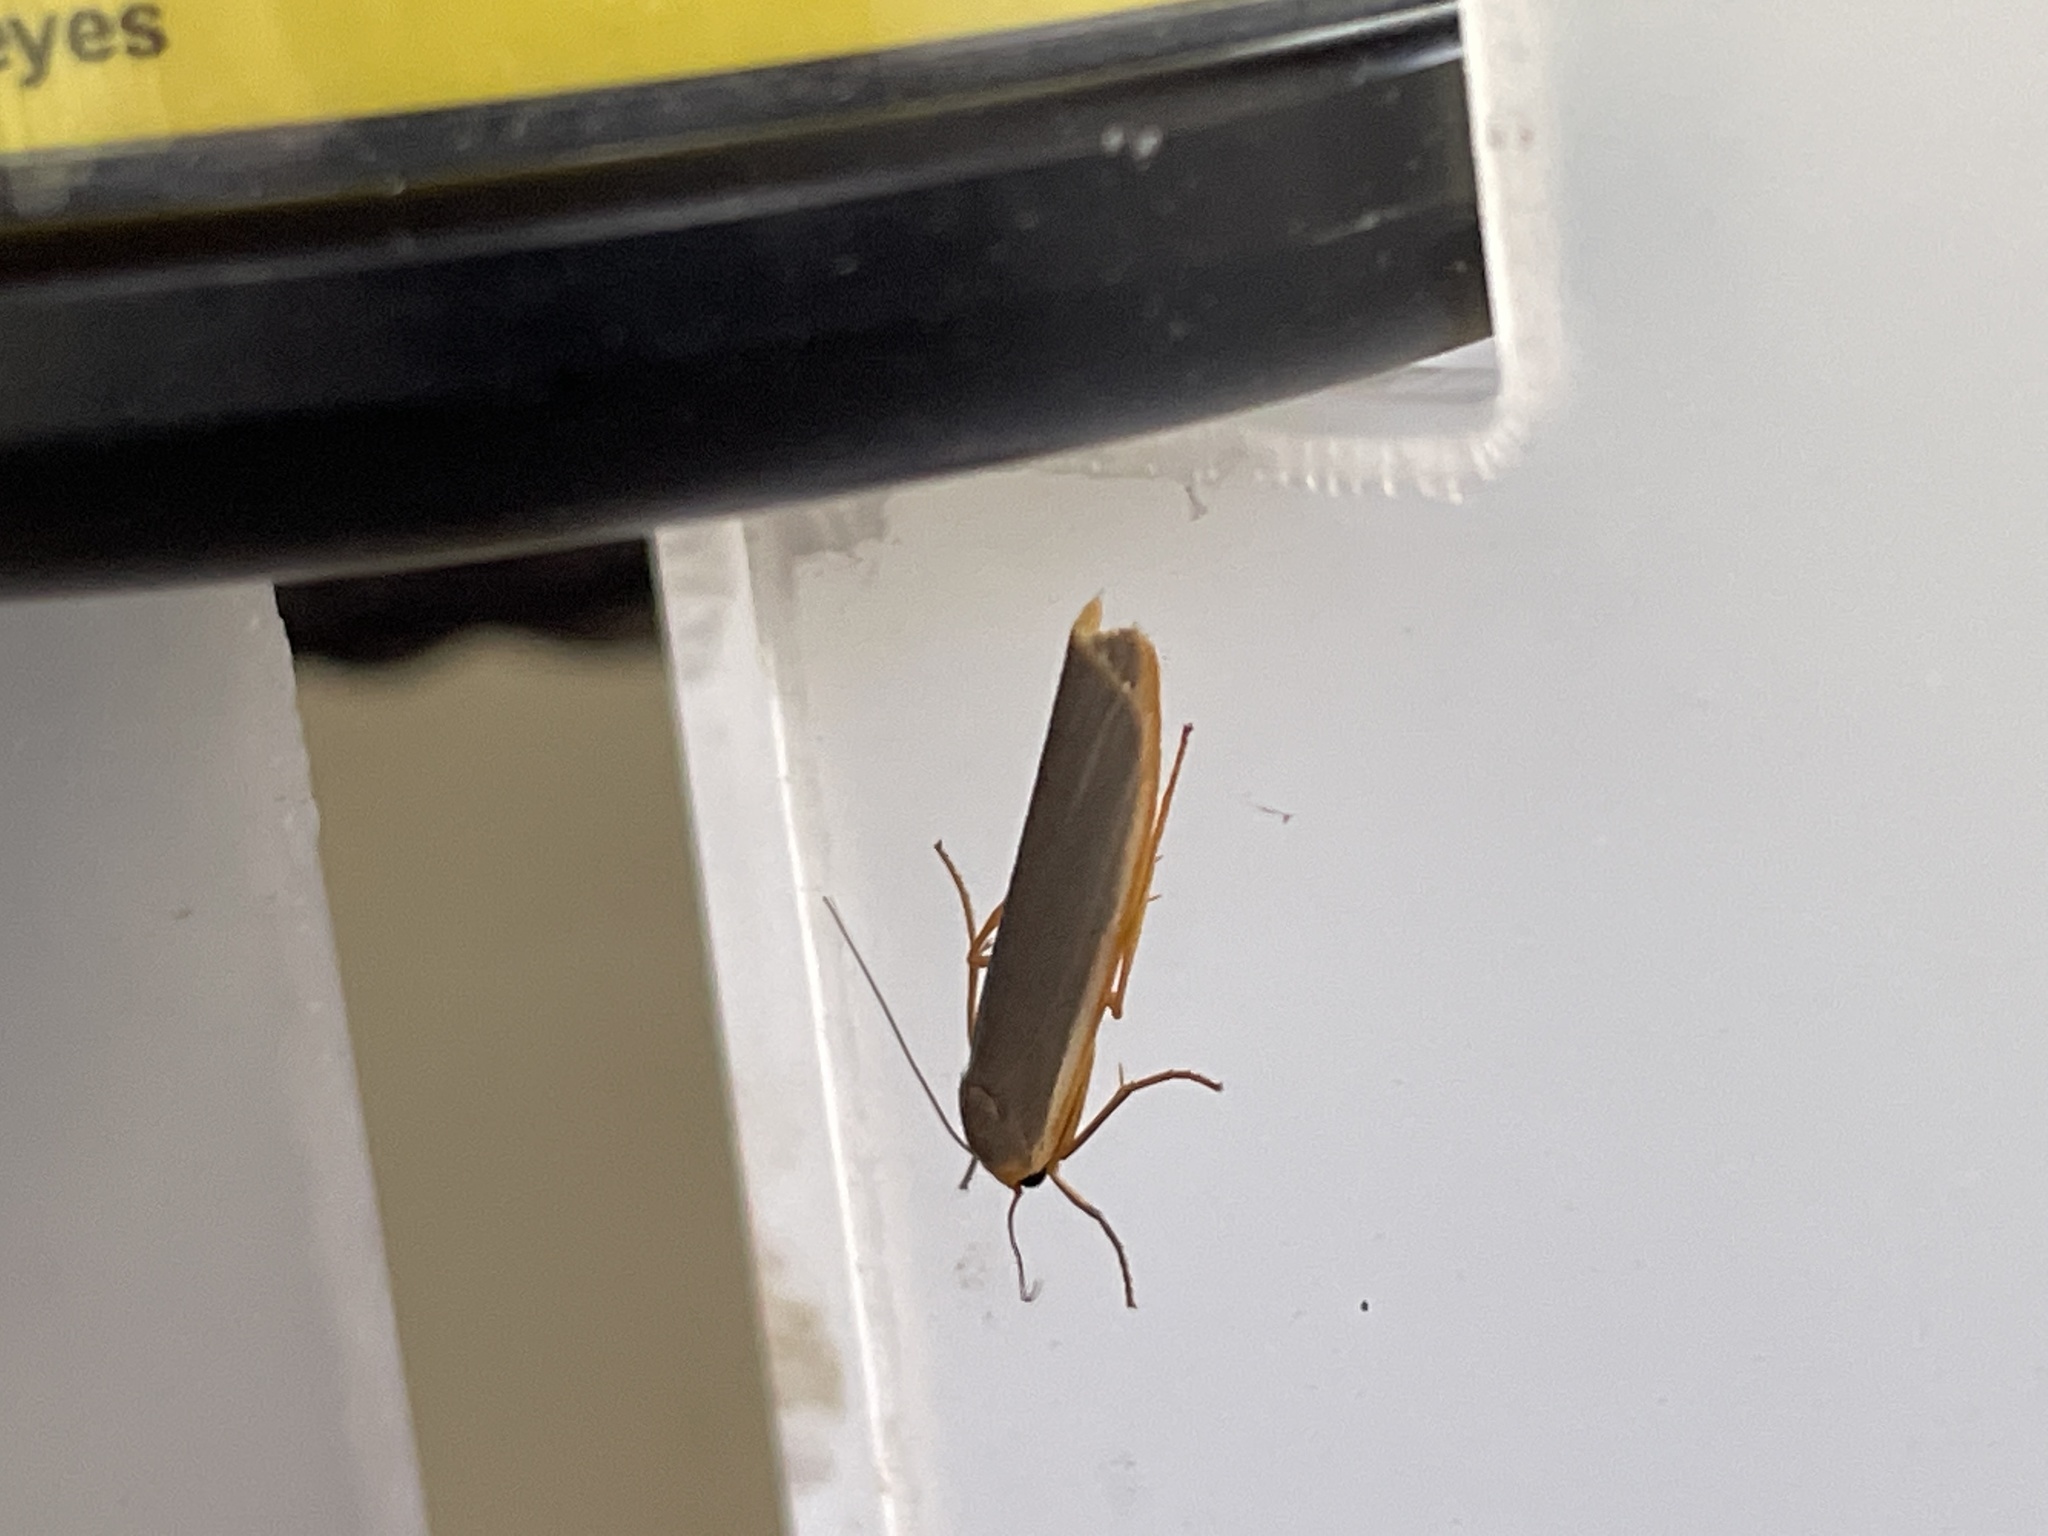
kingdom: Animalia
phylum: Arthropoda
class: Insecta
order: Lepidoptera
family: Erebidae
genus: Manulea
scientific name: Manulea complana
